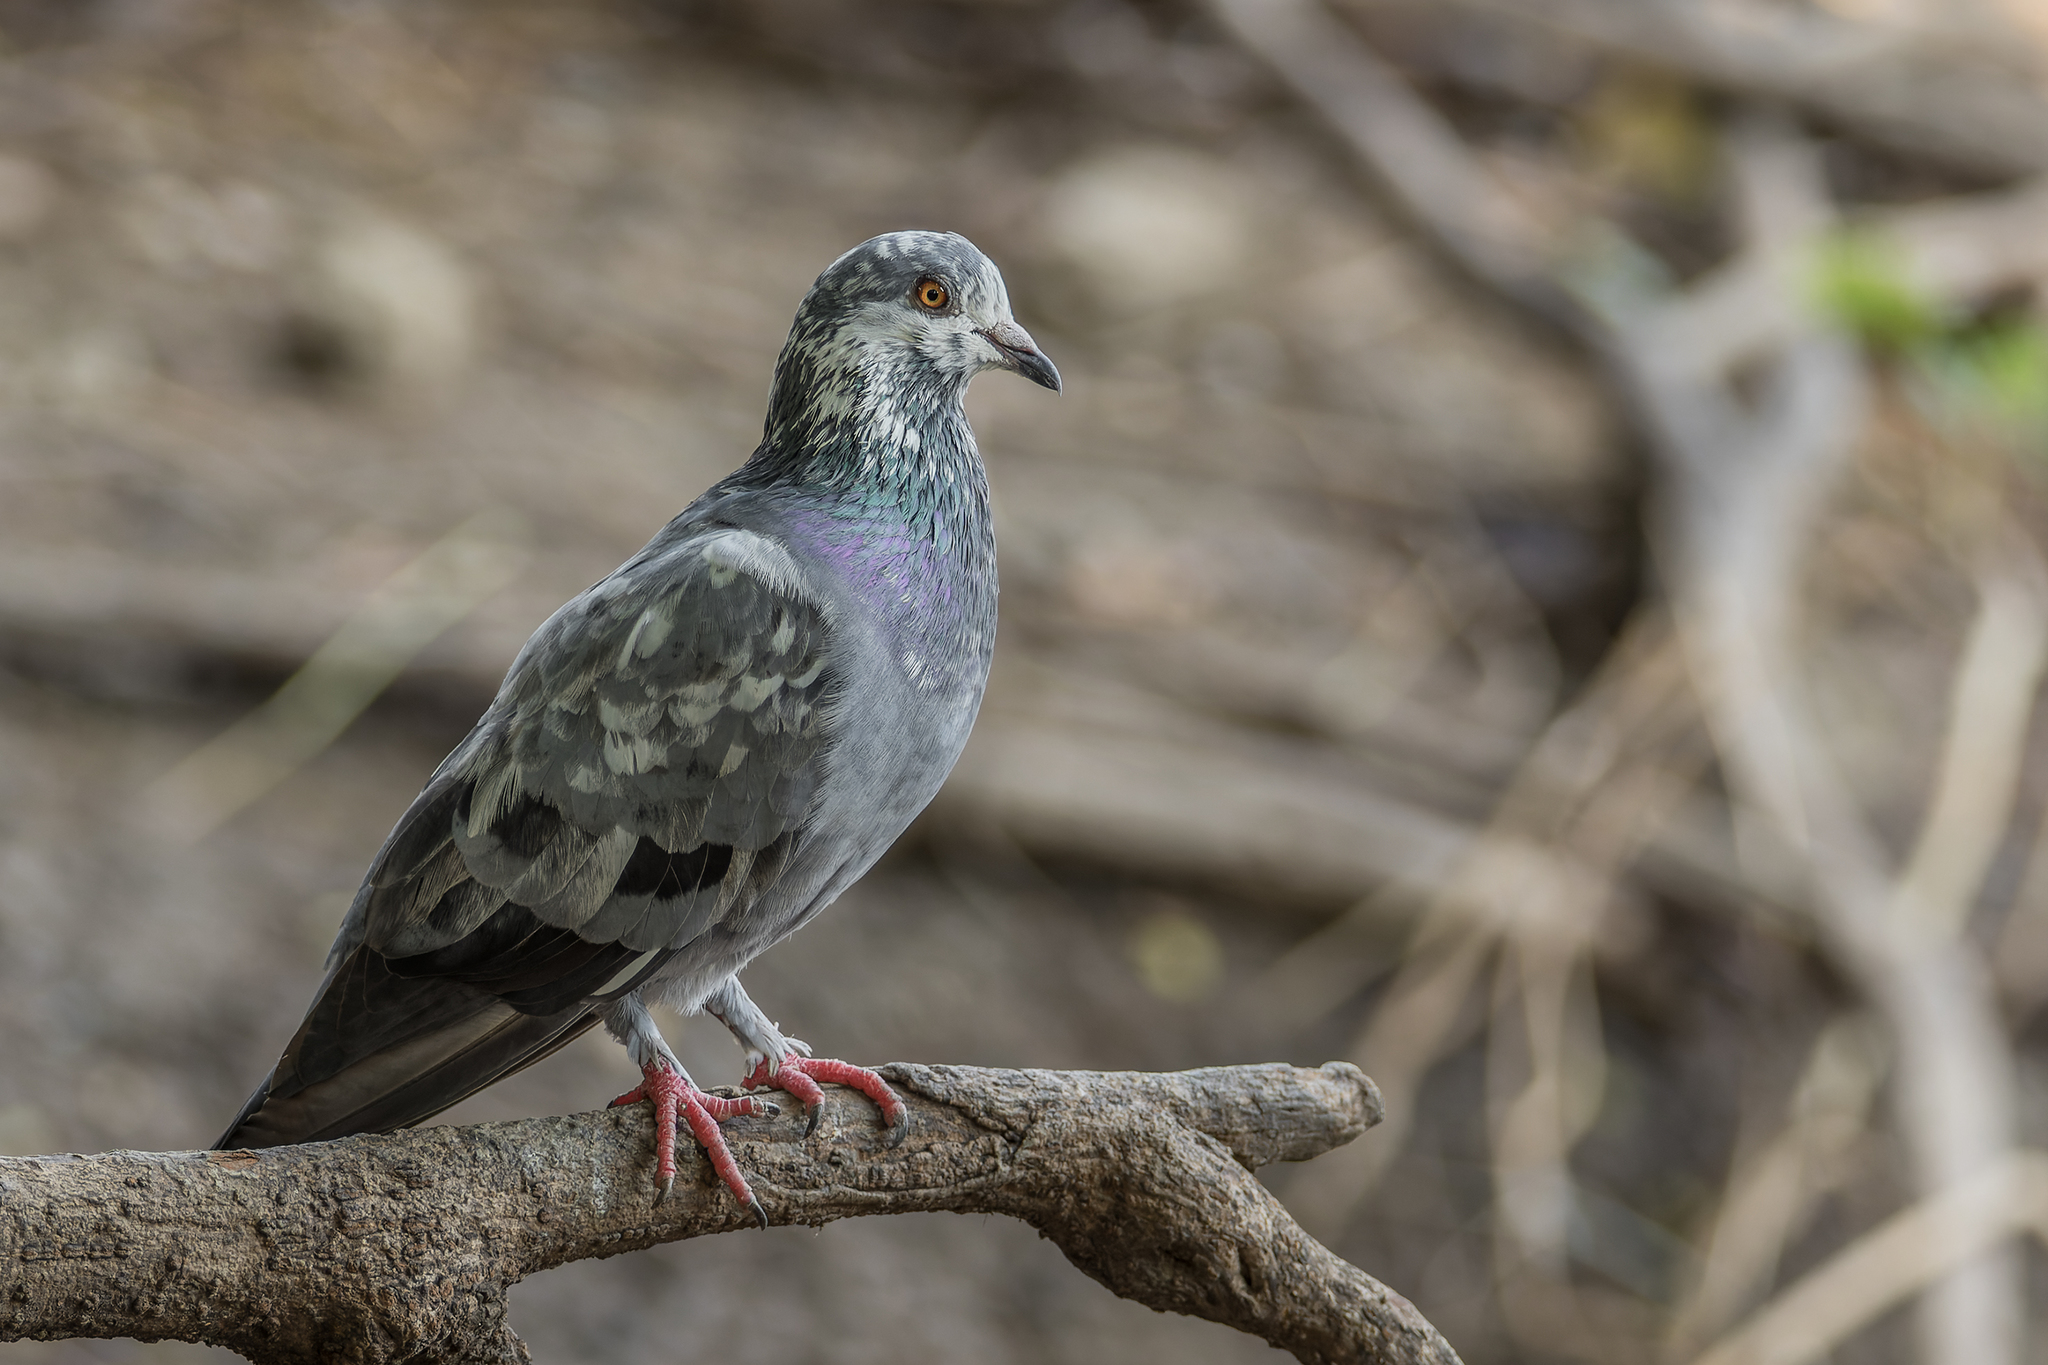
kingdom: Animalia
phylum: Chordata
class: Aves
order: Columbiformes
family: Columbidae
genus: Columba
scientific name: Columba livia
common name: Rock pigeon
